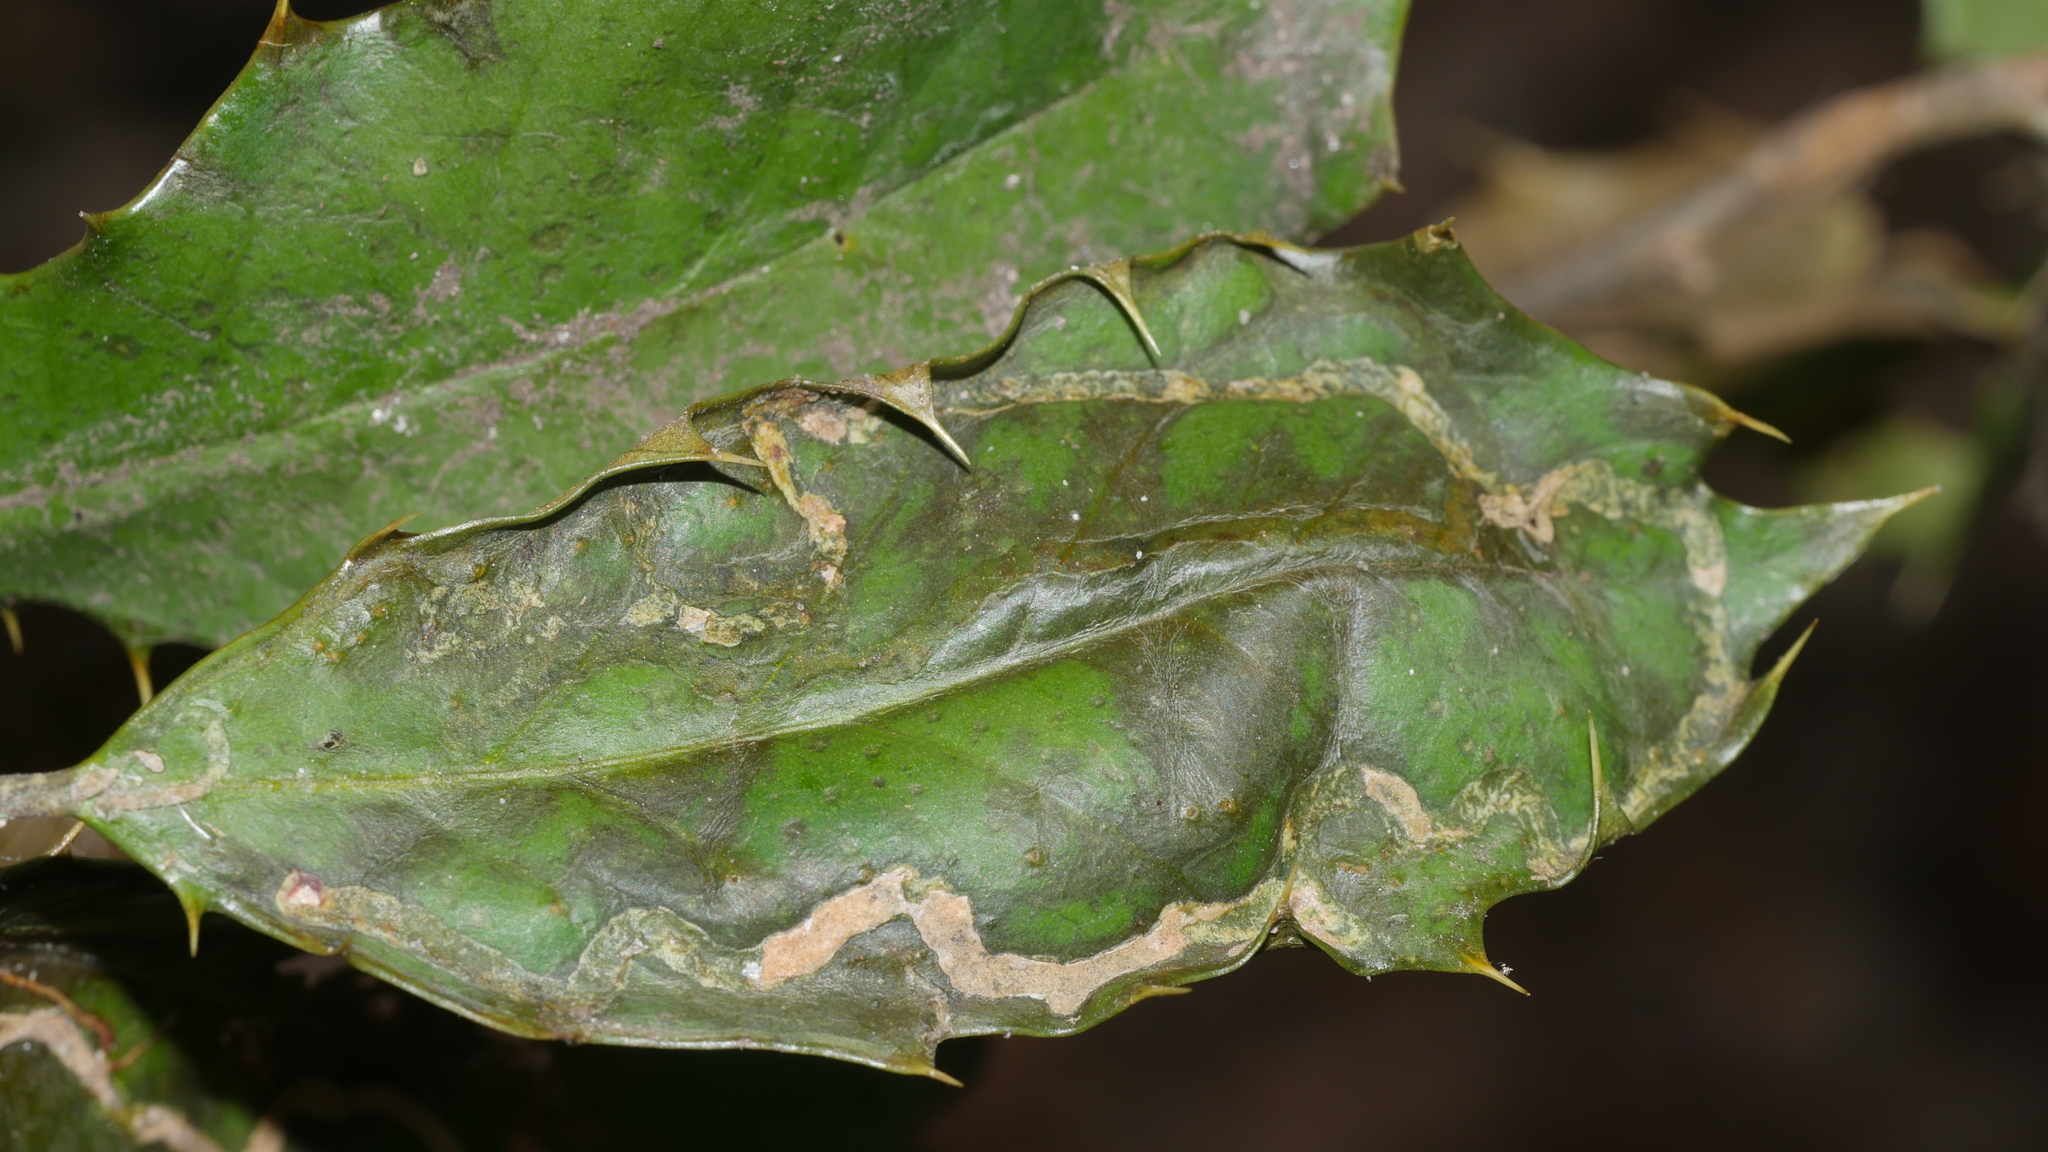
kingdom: Animalia
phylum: Arthropoda
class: Insecta
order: Diptera
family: Agromyzidae
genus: Phytomyza
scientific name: Phytomyza opacae
